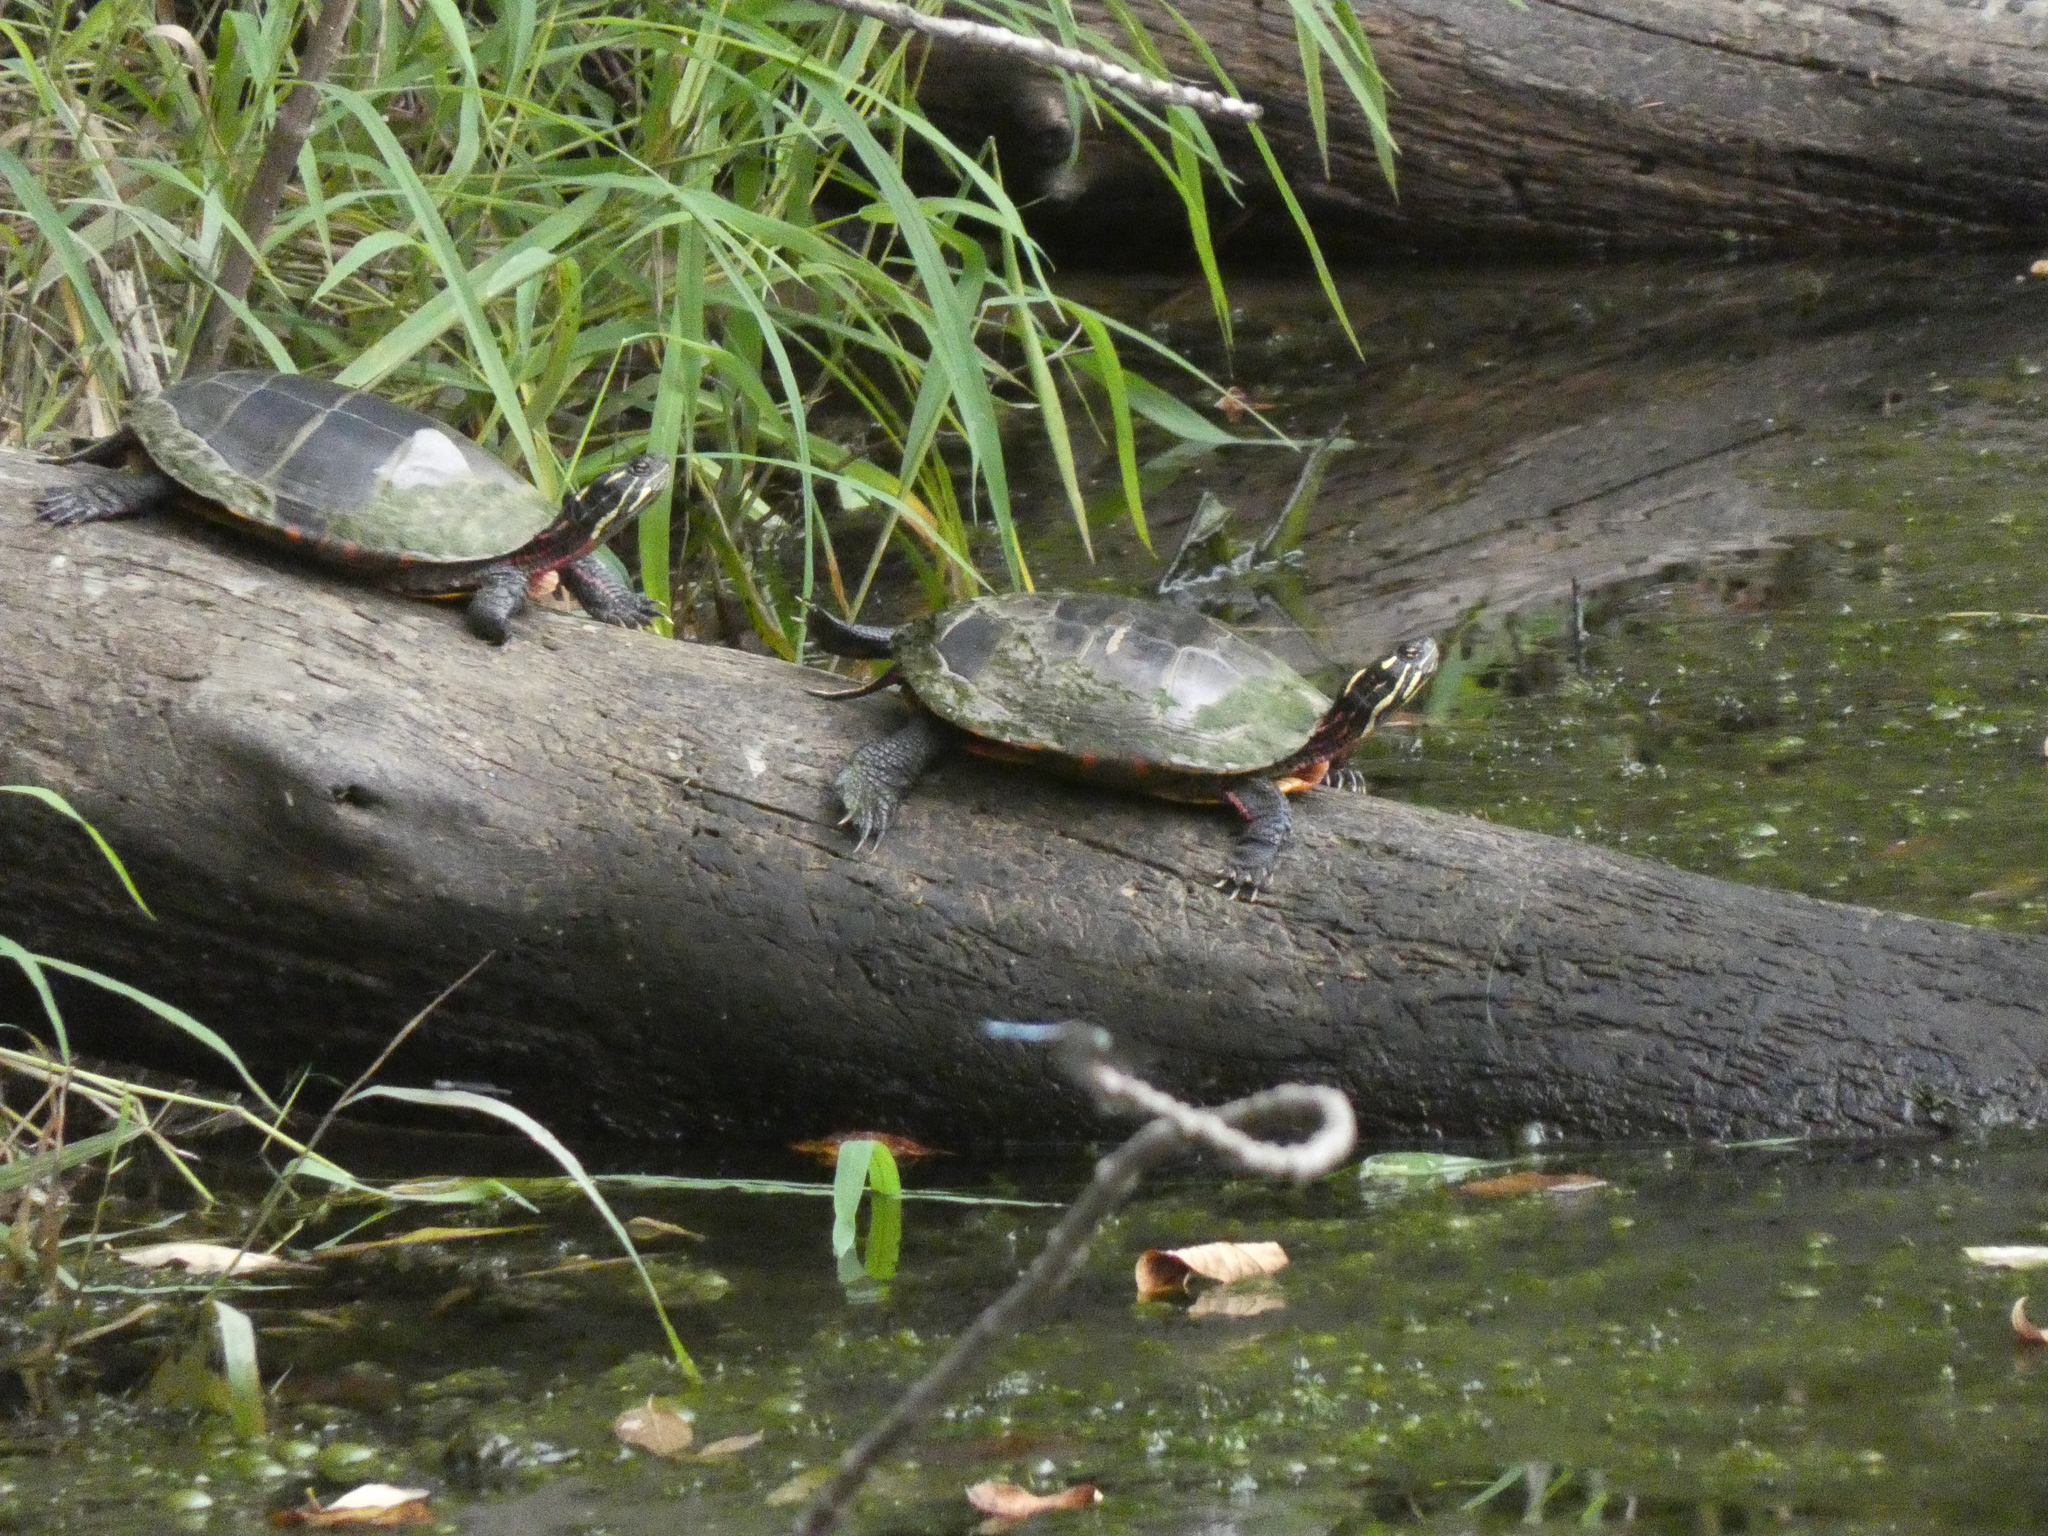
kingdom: Animalia
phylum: Chordata
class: Testudines
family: Emydidae
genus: Chrysemys
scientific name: Chrysemys picta
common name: Painted turtle
